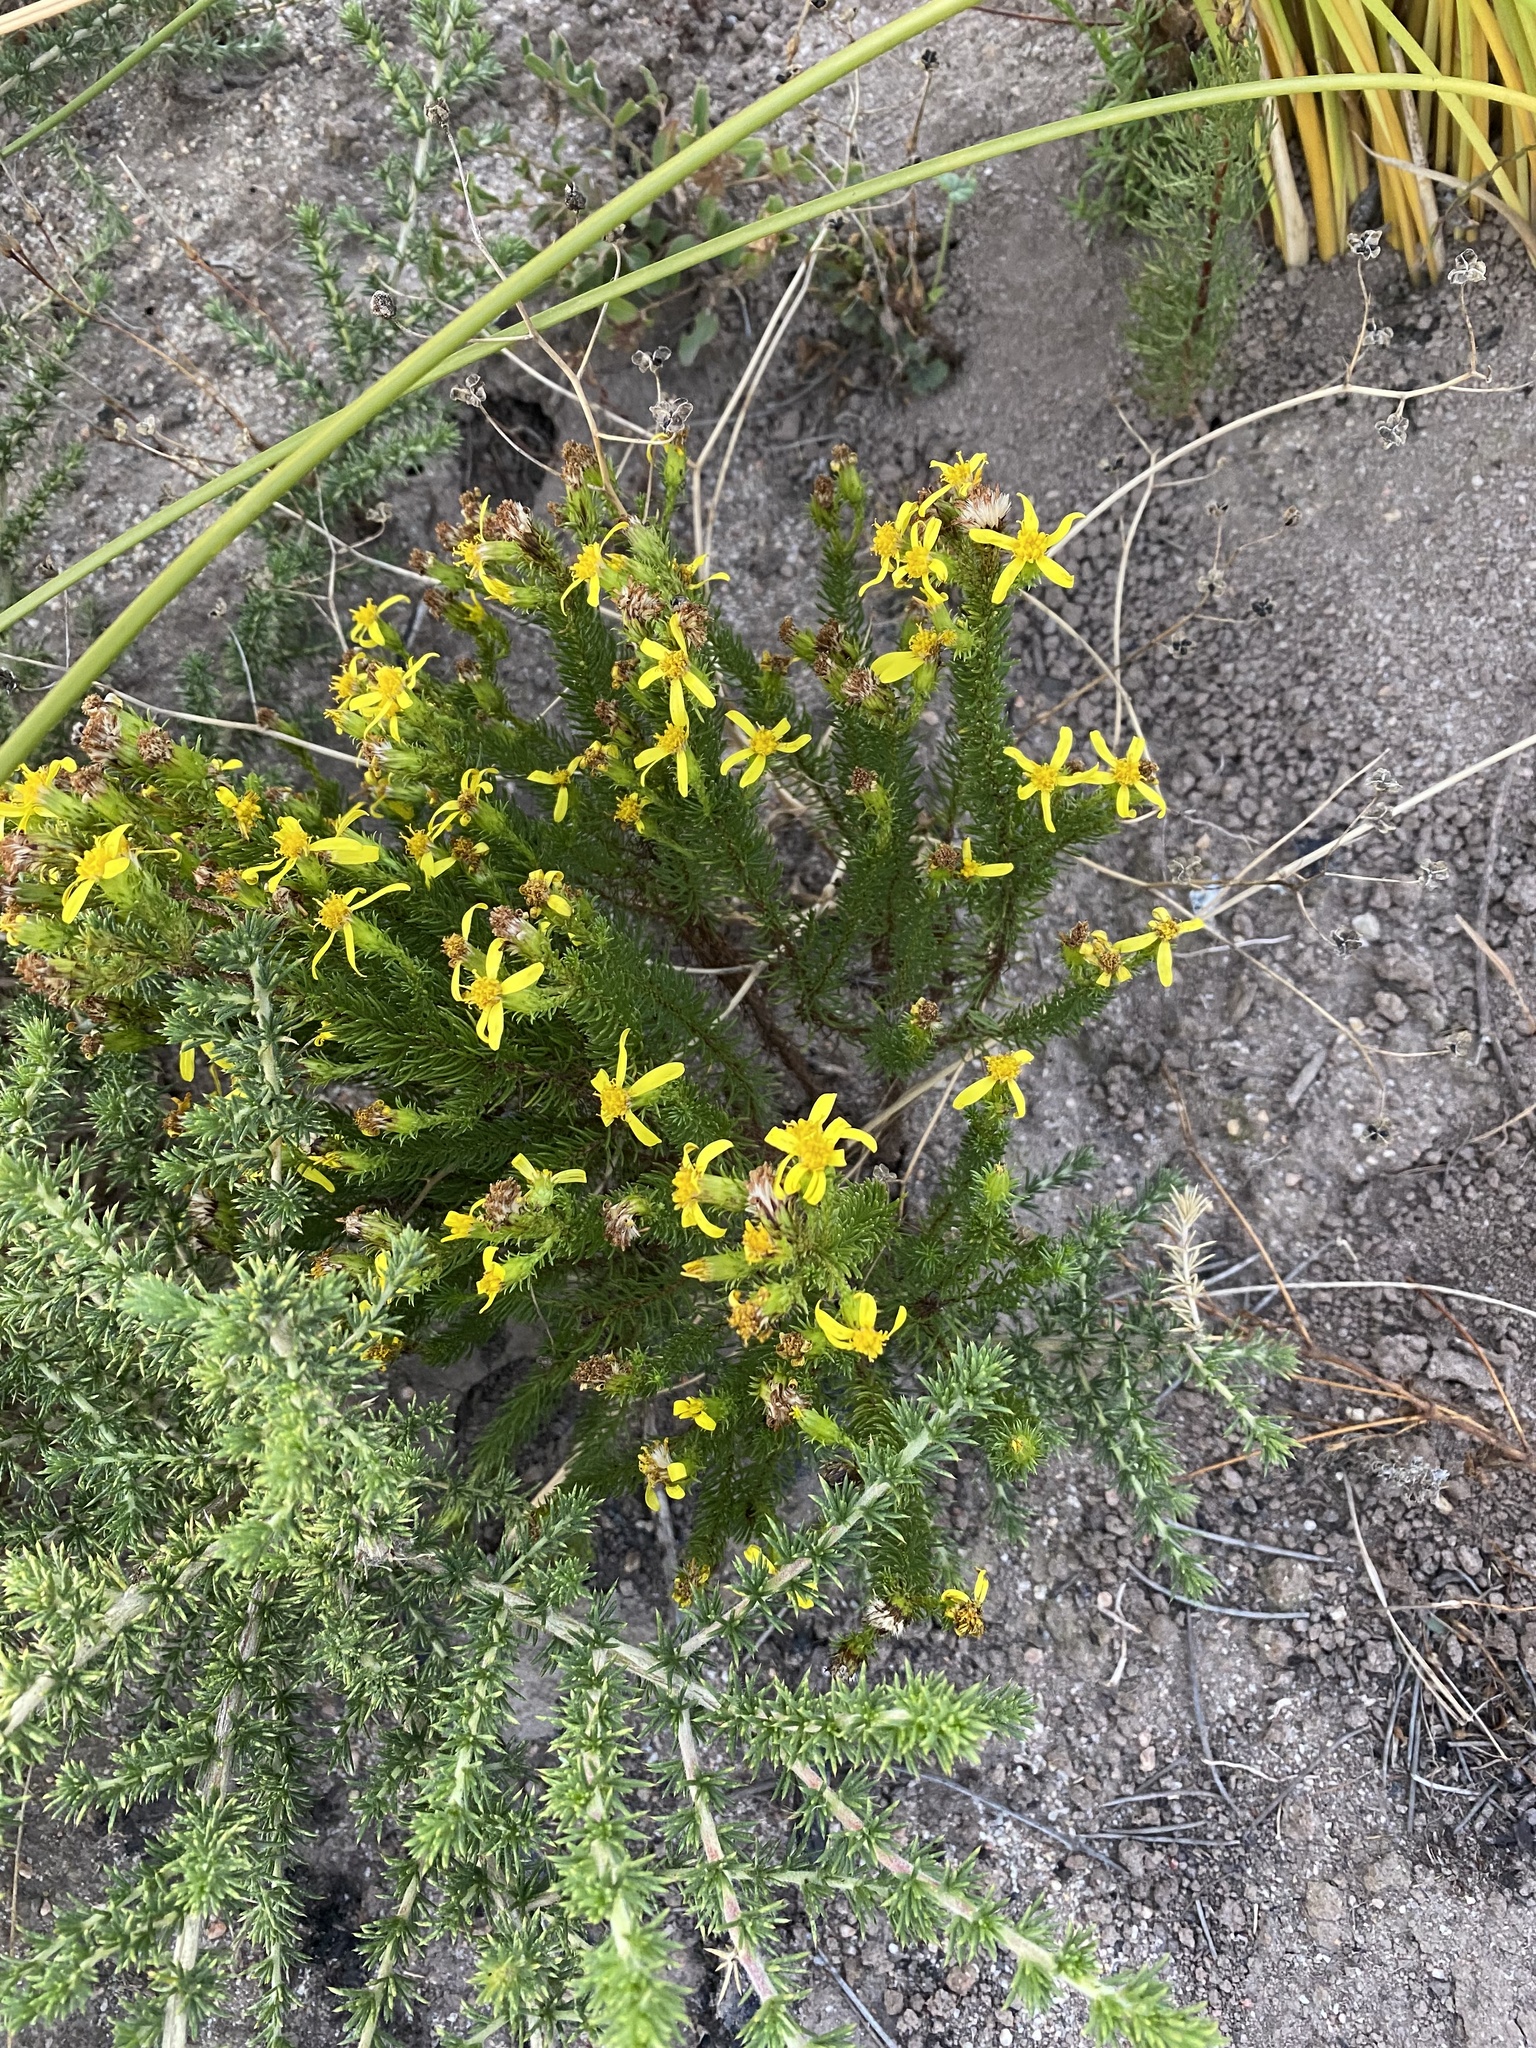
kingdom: Plantae
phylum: Tracheophyta
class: Magnoliopsida
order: Asterales
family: Asteraceae
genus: Senecio
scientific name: Senecio pinifolius
